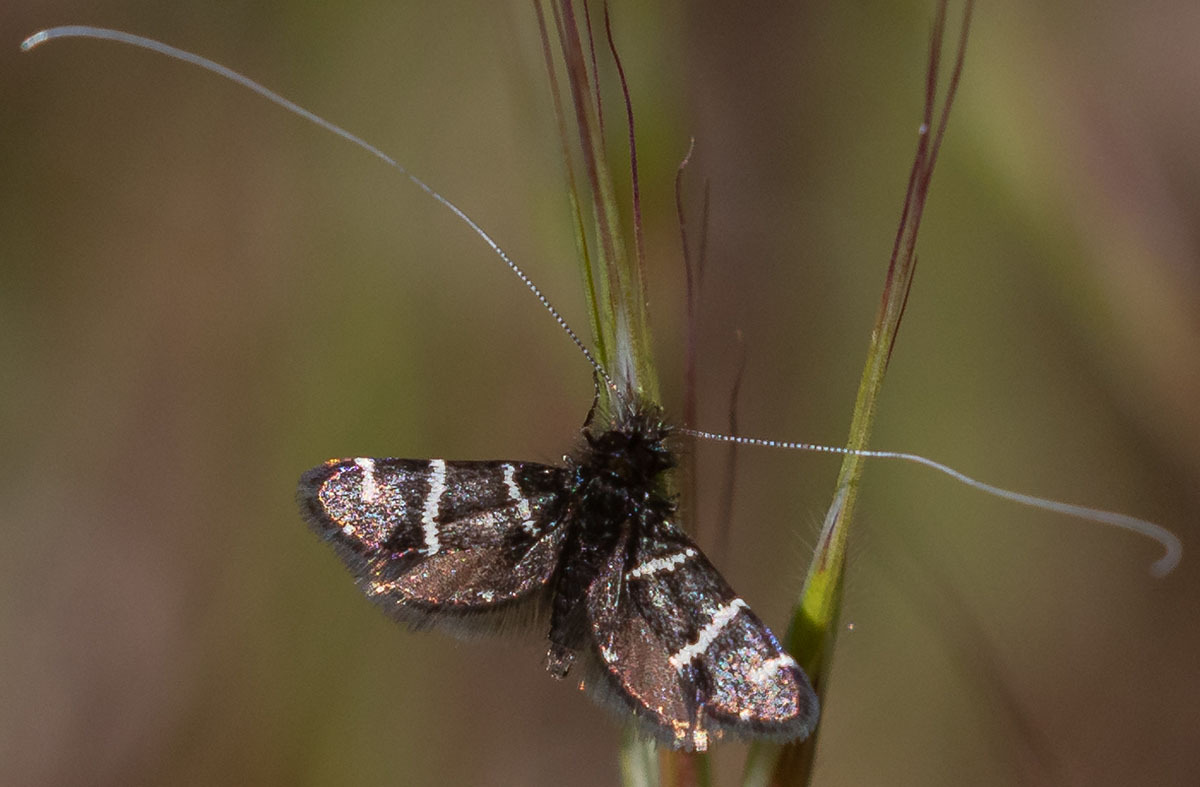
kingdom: Animalia
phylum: Arthropoda
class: Insecta
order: Lepidoptera
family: Adelidae
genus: Adela
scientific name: Adela trigrapha
